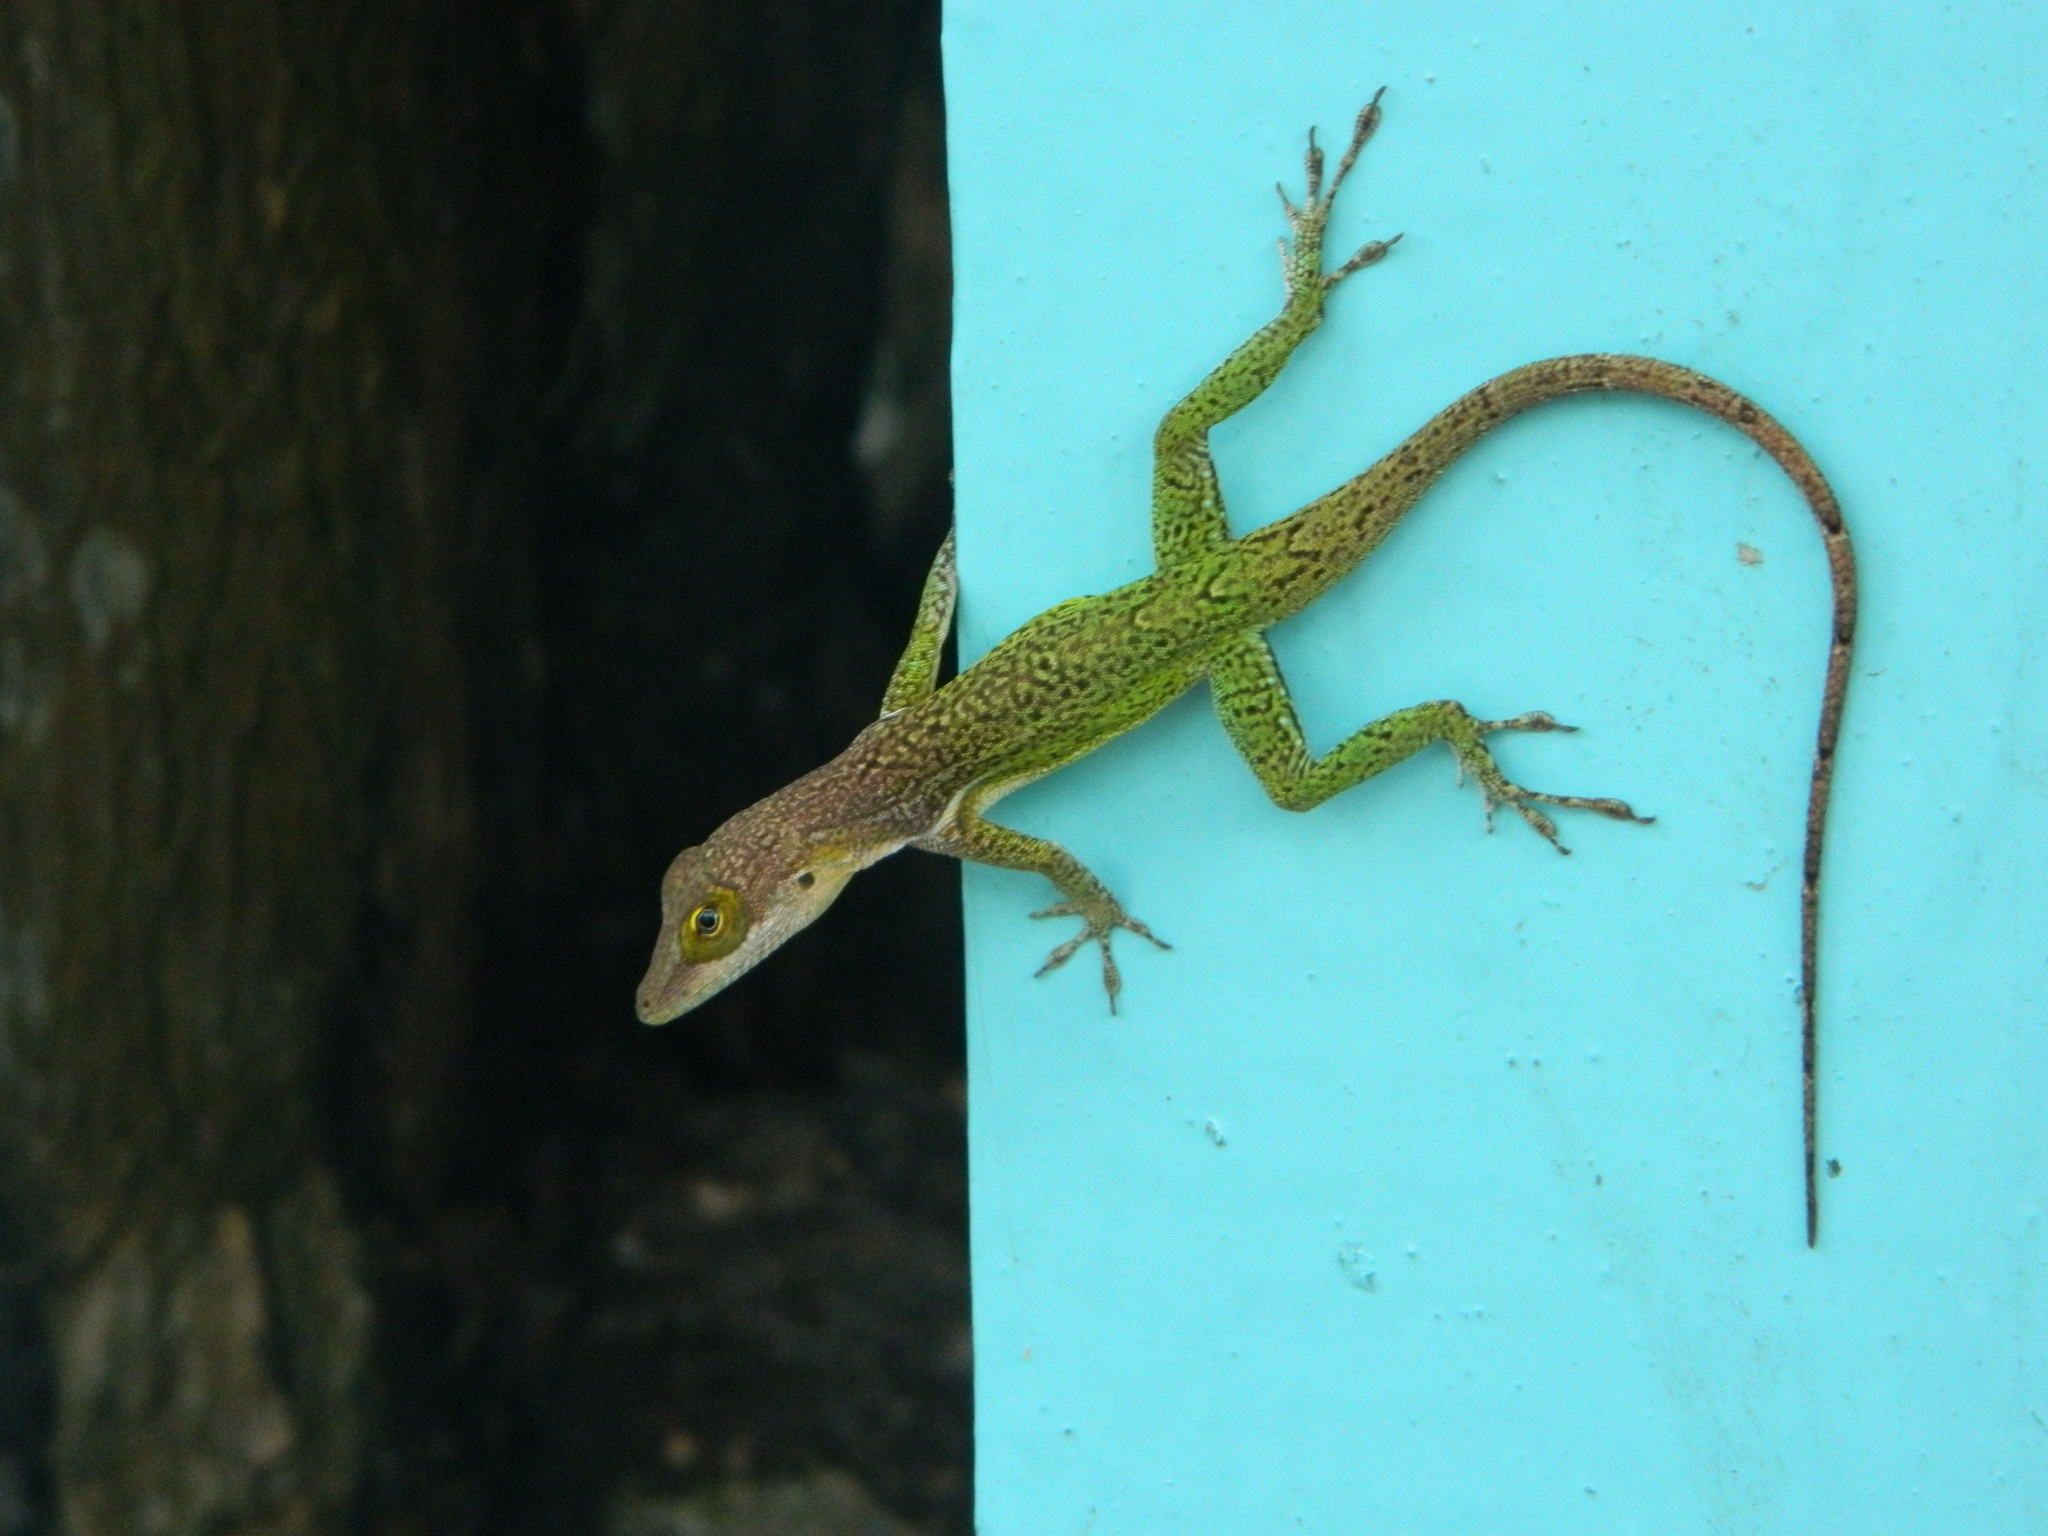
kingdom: Animalia
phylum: Chordata
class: Squamata
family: Dactyloidae
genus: Anolis
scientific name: Anolis leachii
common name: Barbuda bank tree anole
